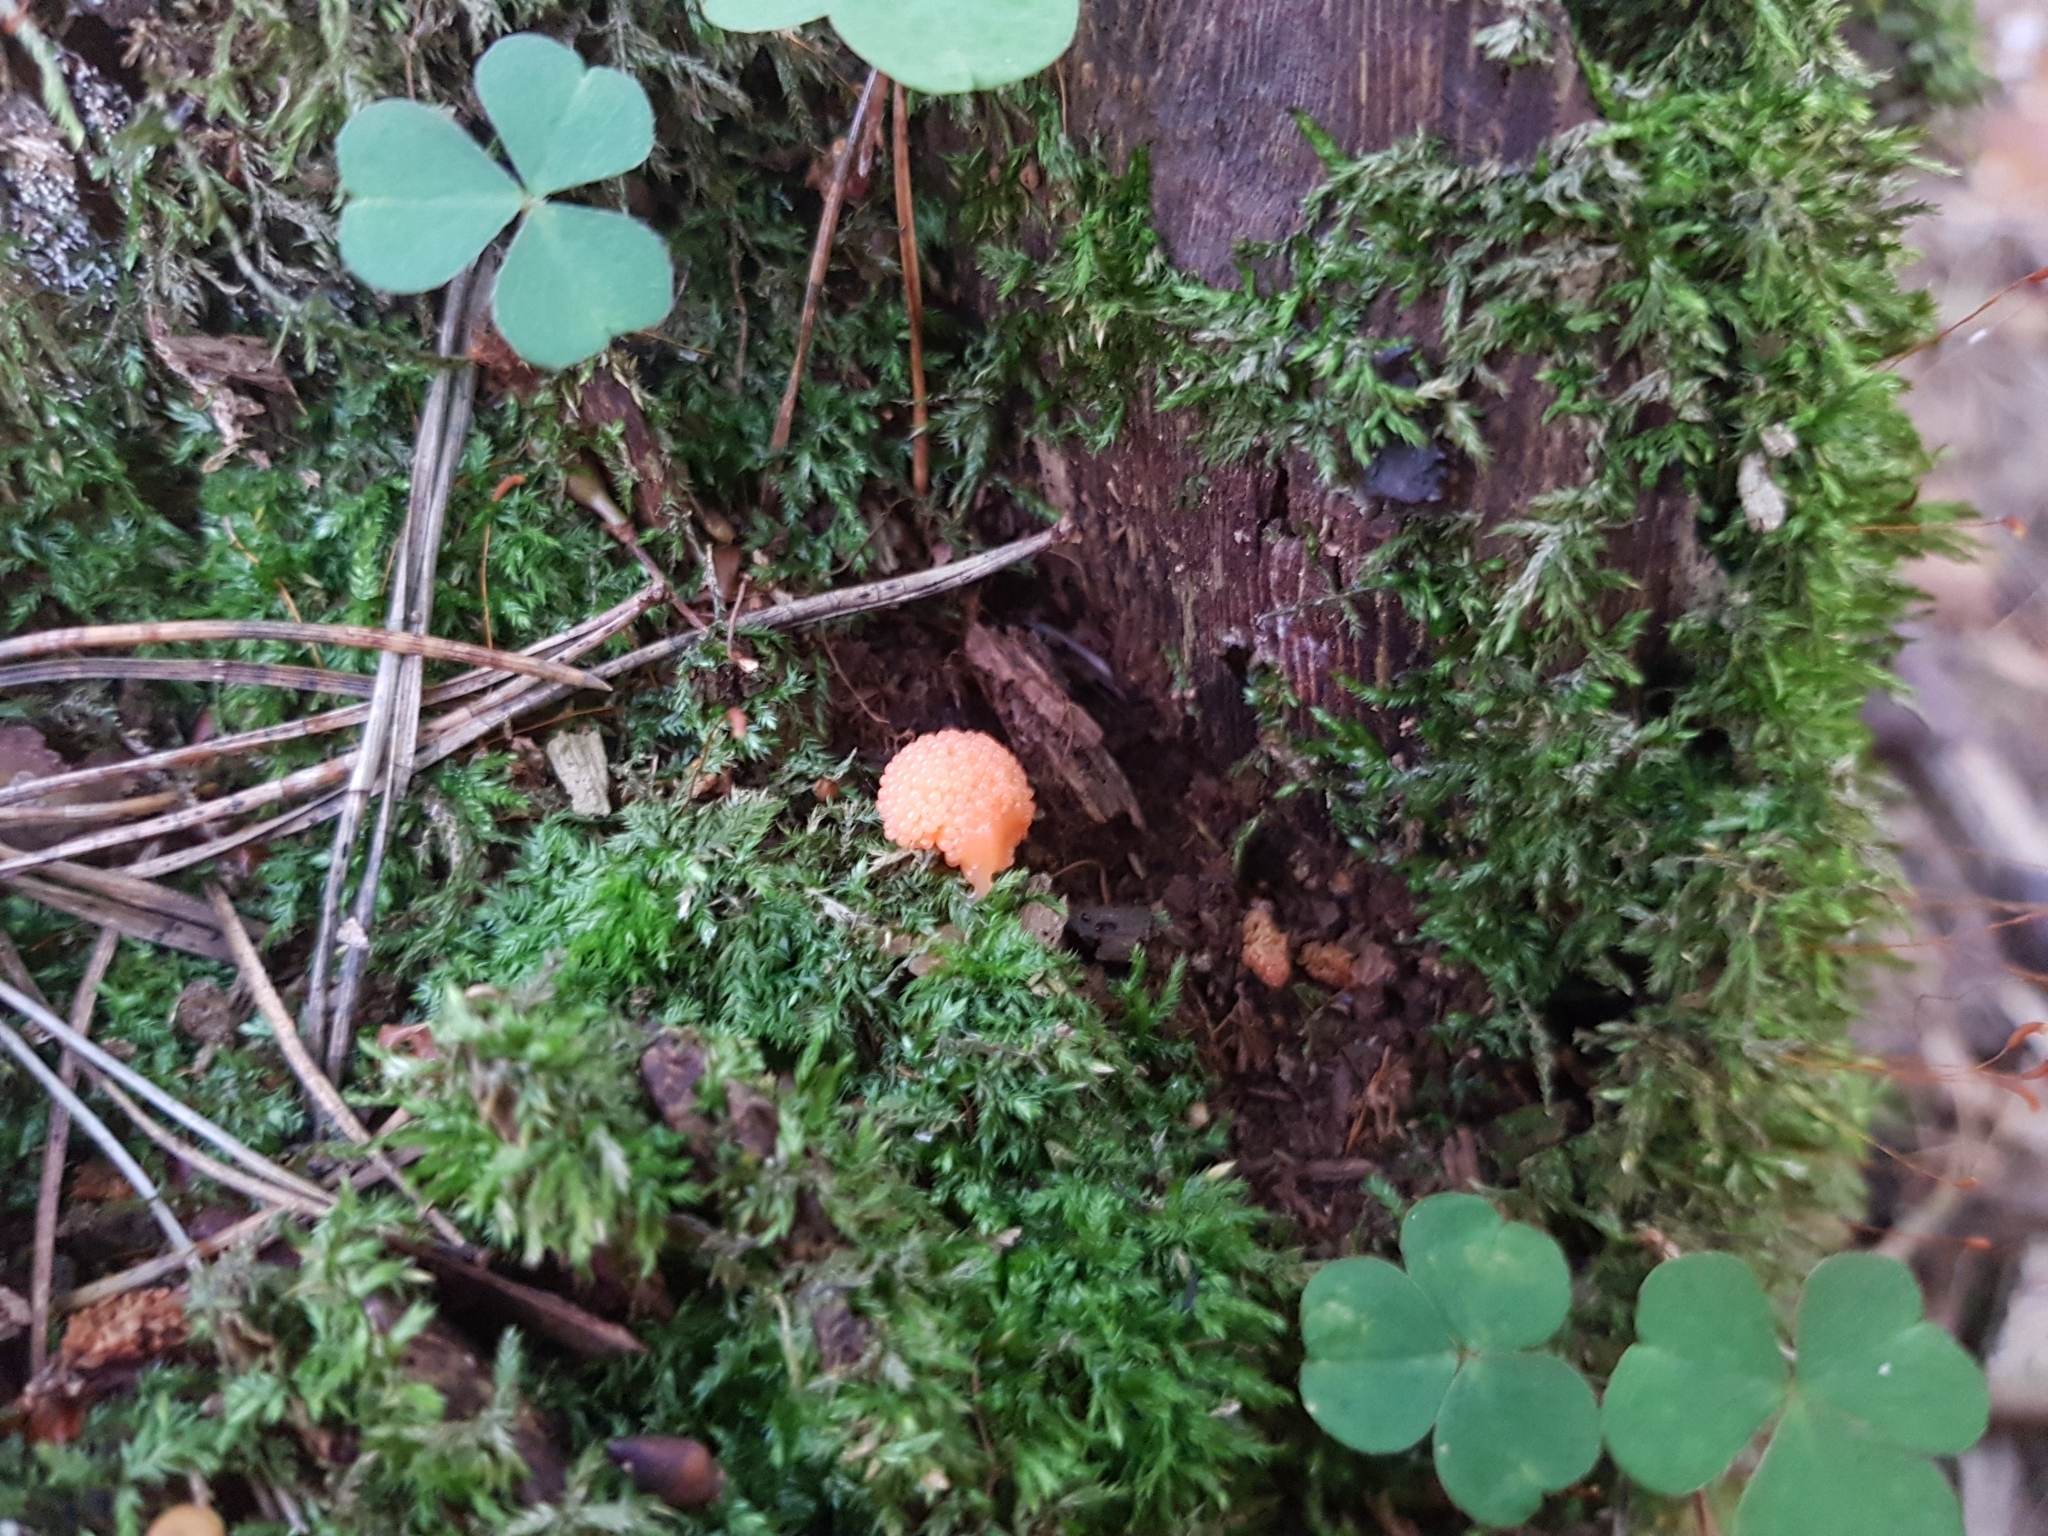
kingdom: Protozoa
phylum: Mycetozoa
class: Myxomycetes
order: Cribrariales
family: Tubiferaceae
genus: Tubifera
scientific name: Tubifera ferruginosa
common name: Red raspberry slime mold
